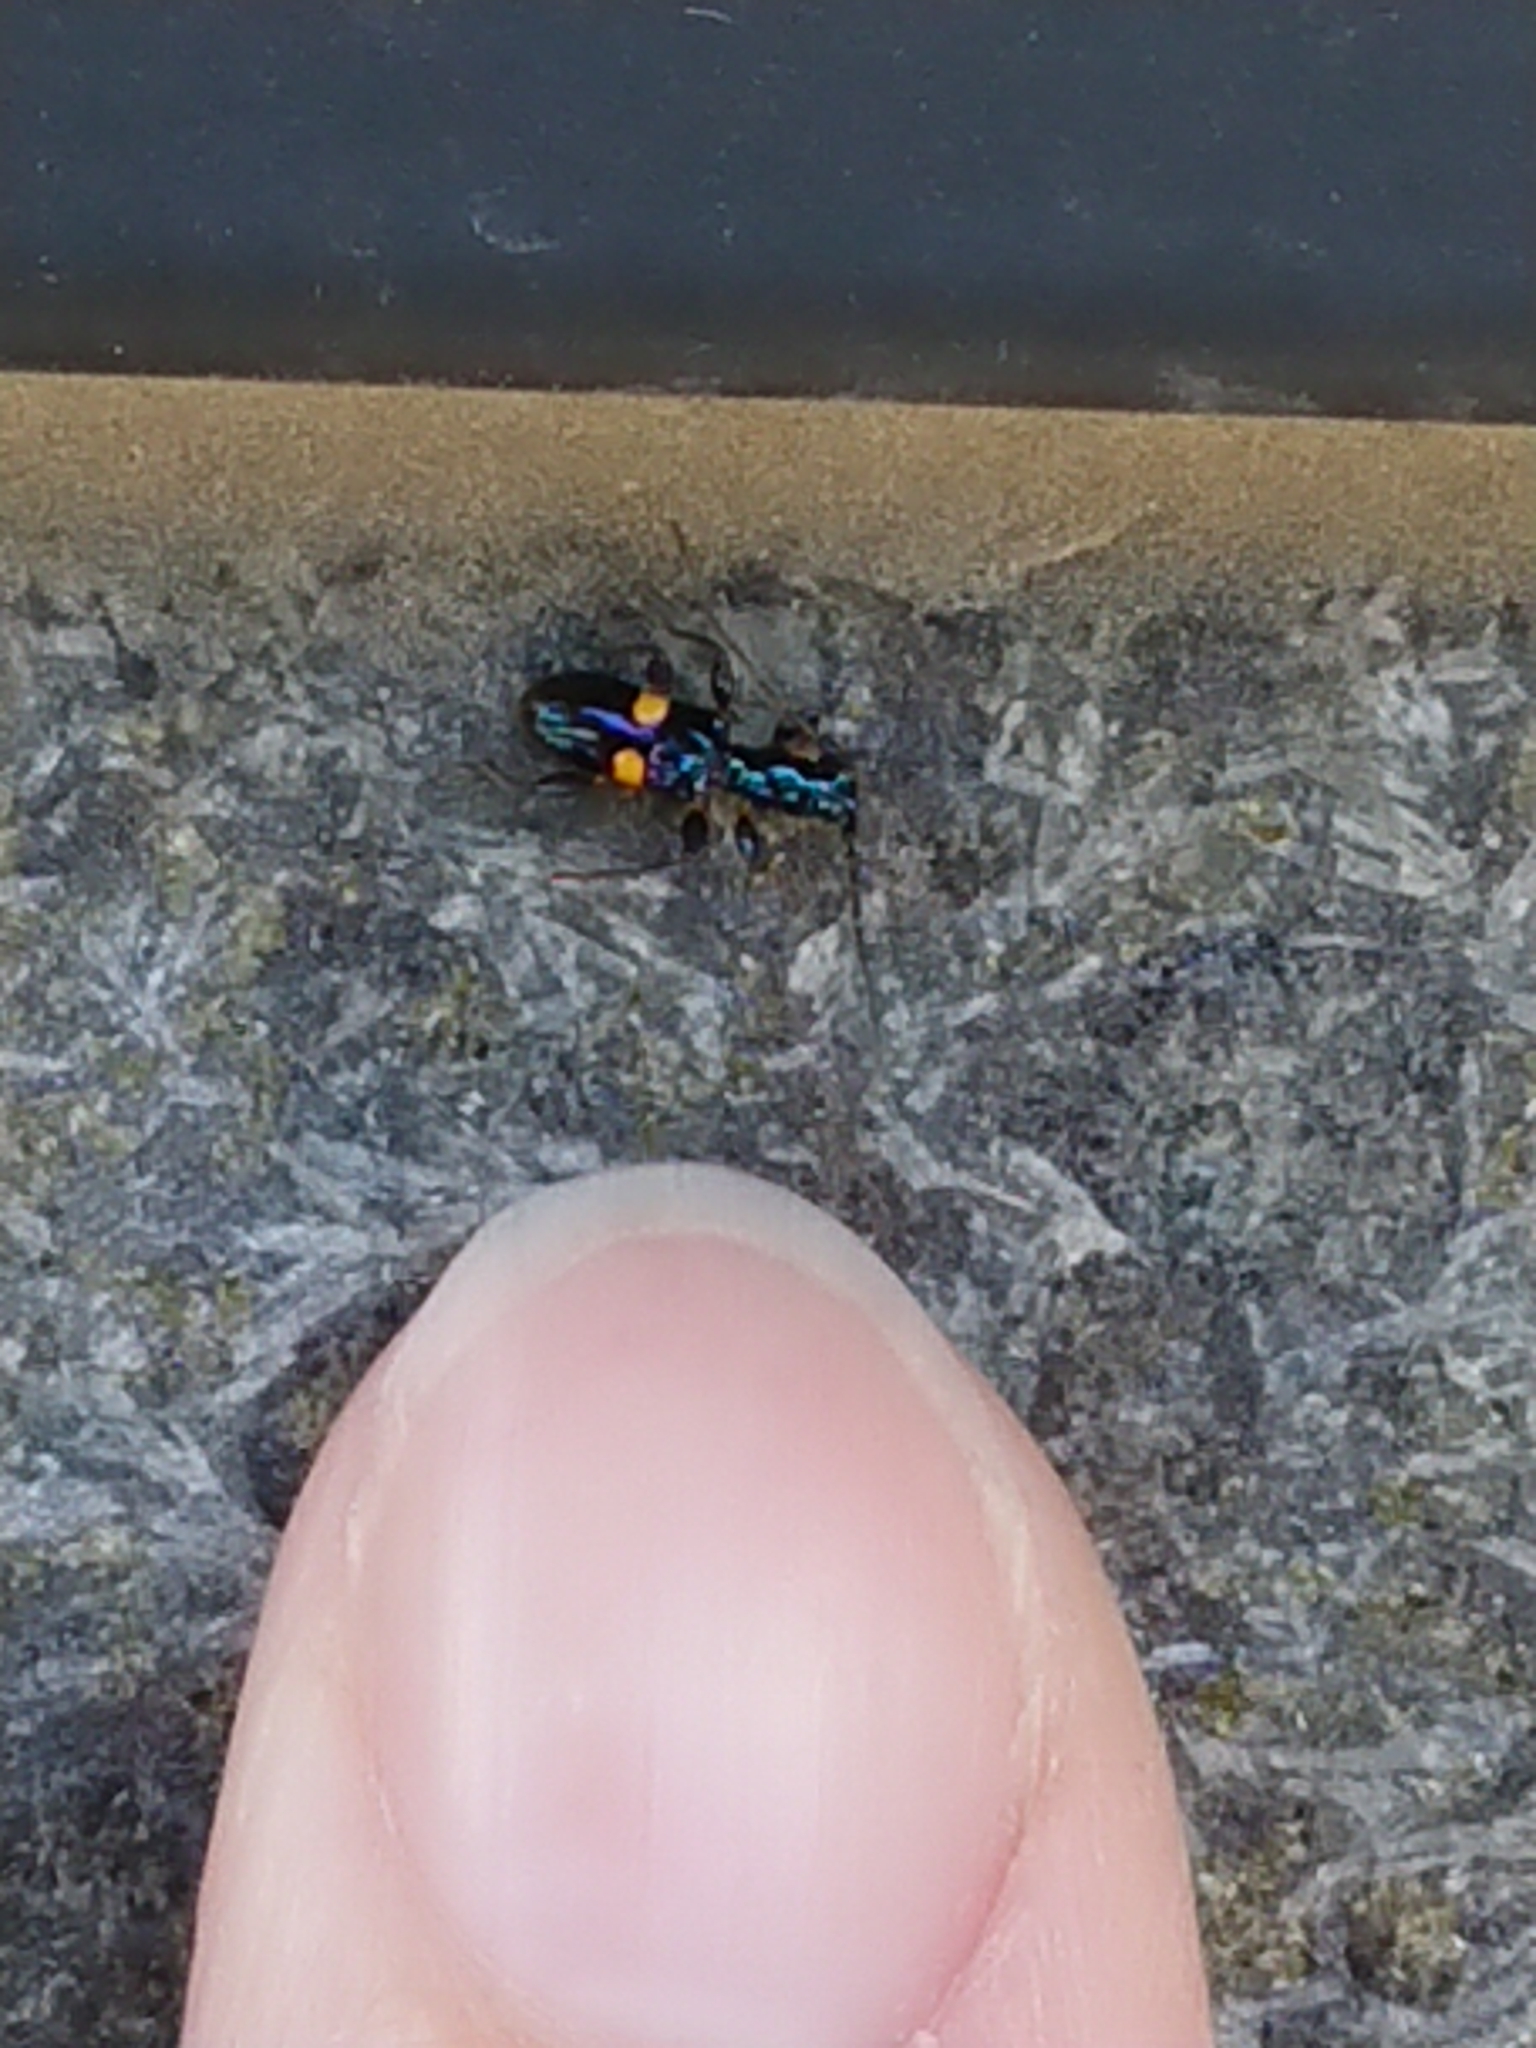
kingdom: Animalia
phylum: Arthropoda
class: Insecta
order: Coleoptera
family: Cerambycidae
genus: Zorion
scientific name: Zorion guttigerum
